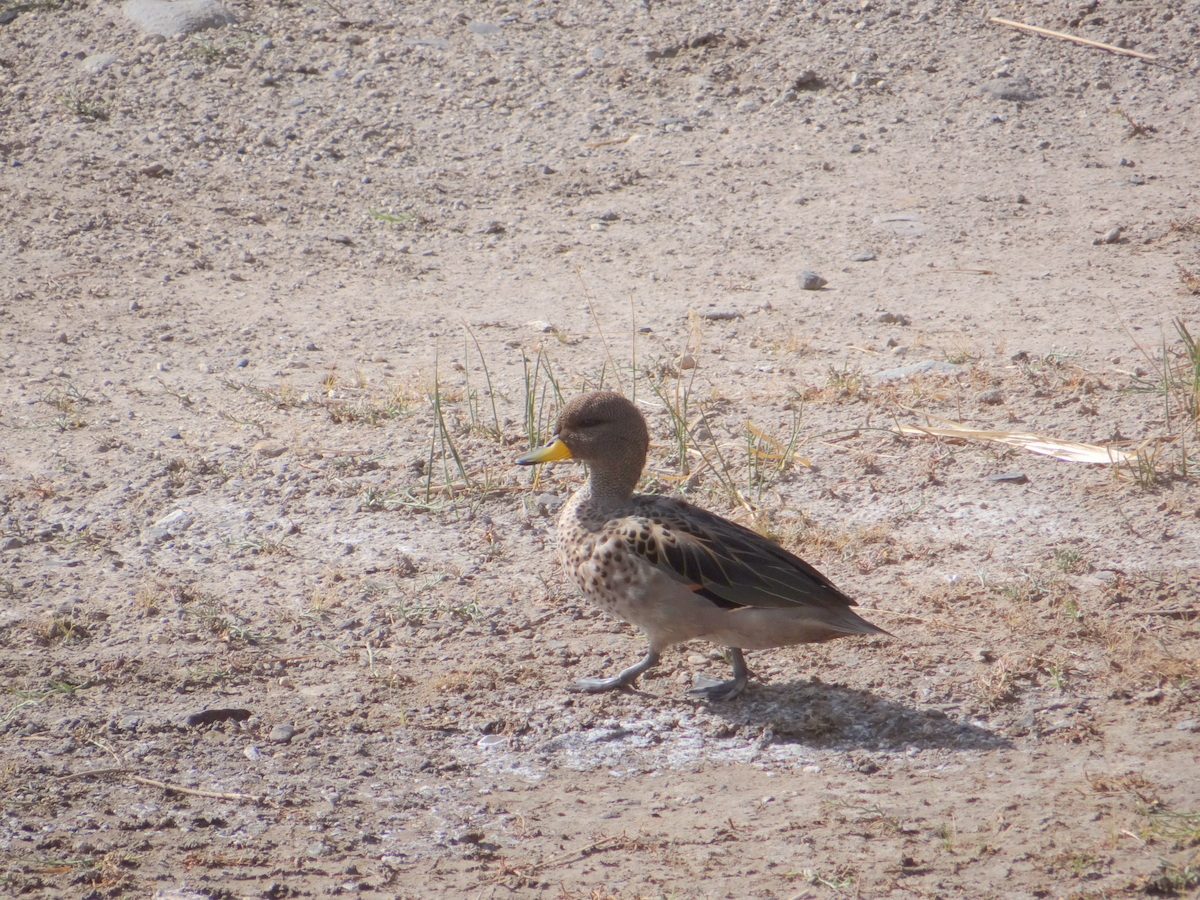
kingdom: Animalia
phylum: Chordata
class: Aves
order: Anseriformes
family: Anatidae
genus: Anas
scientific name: Anas flavirostris
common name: Yellow-billed teal
